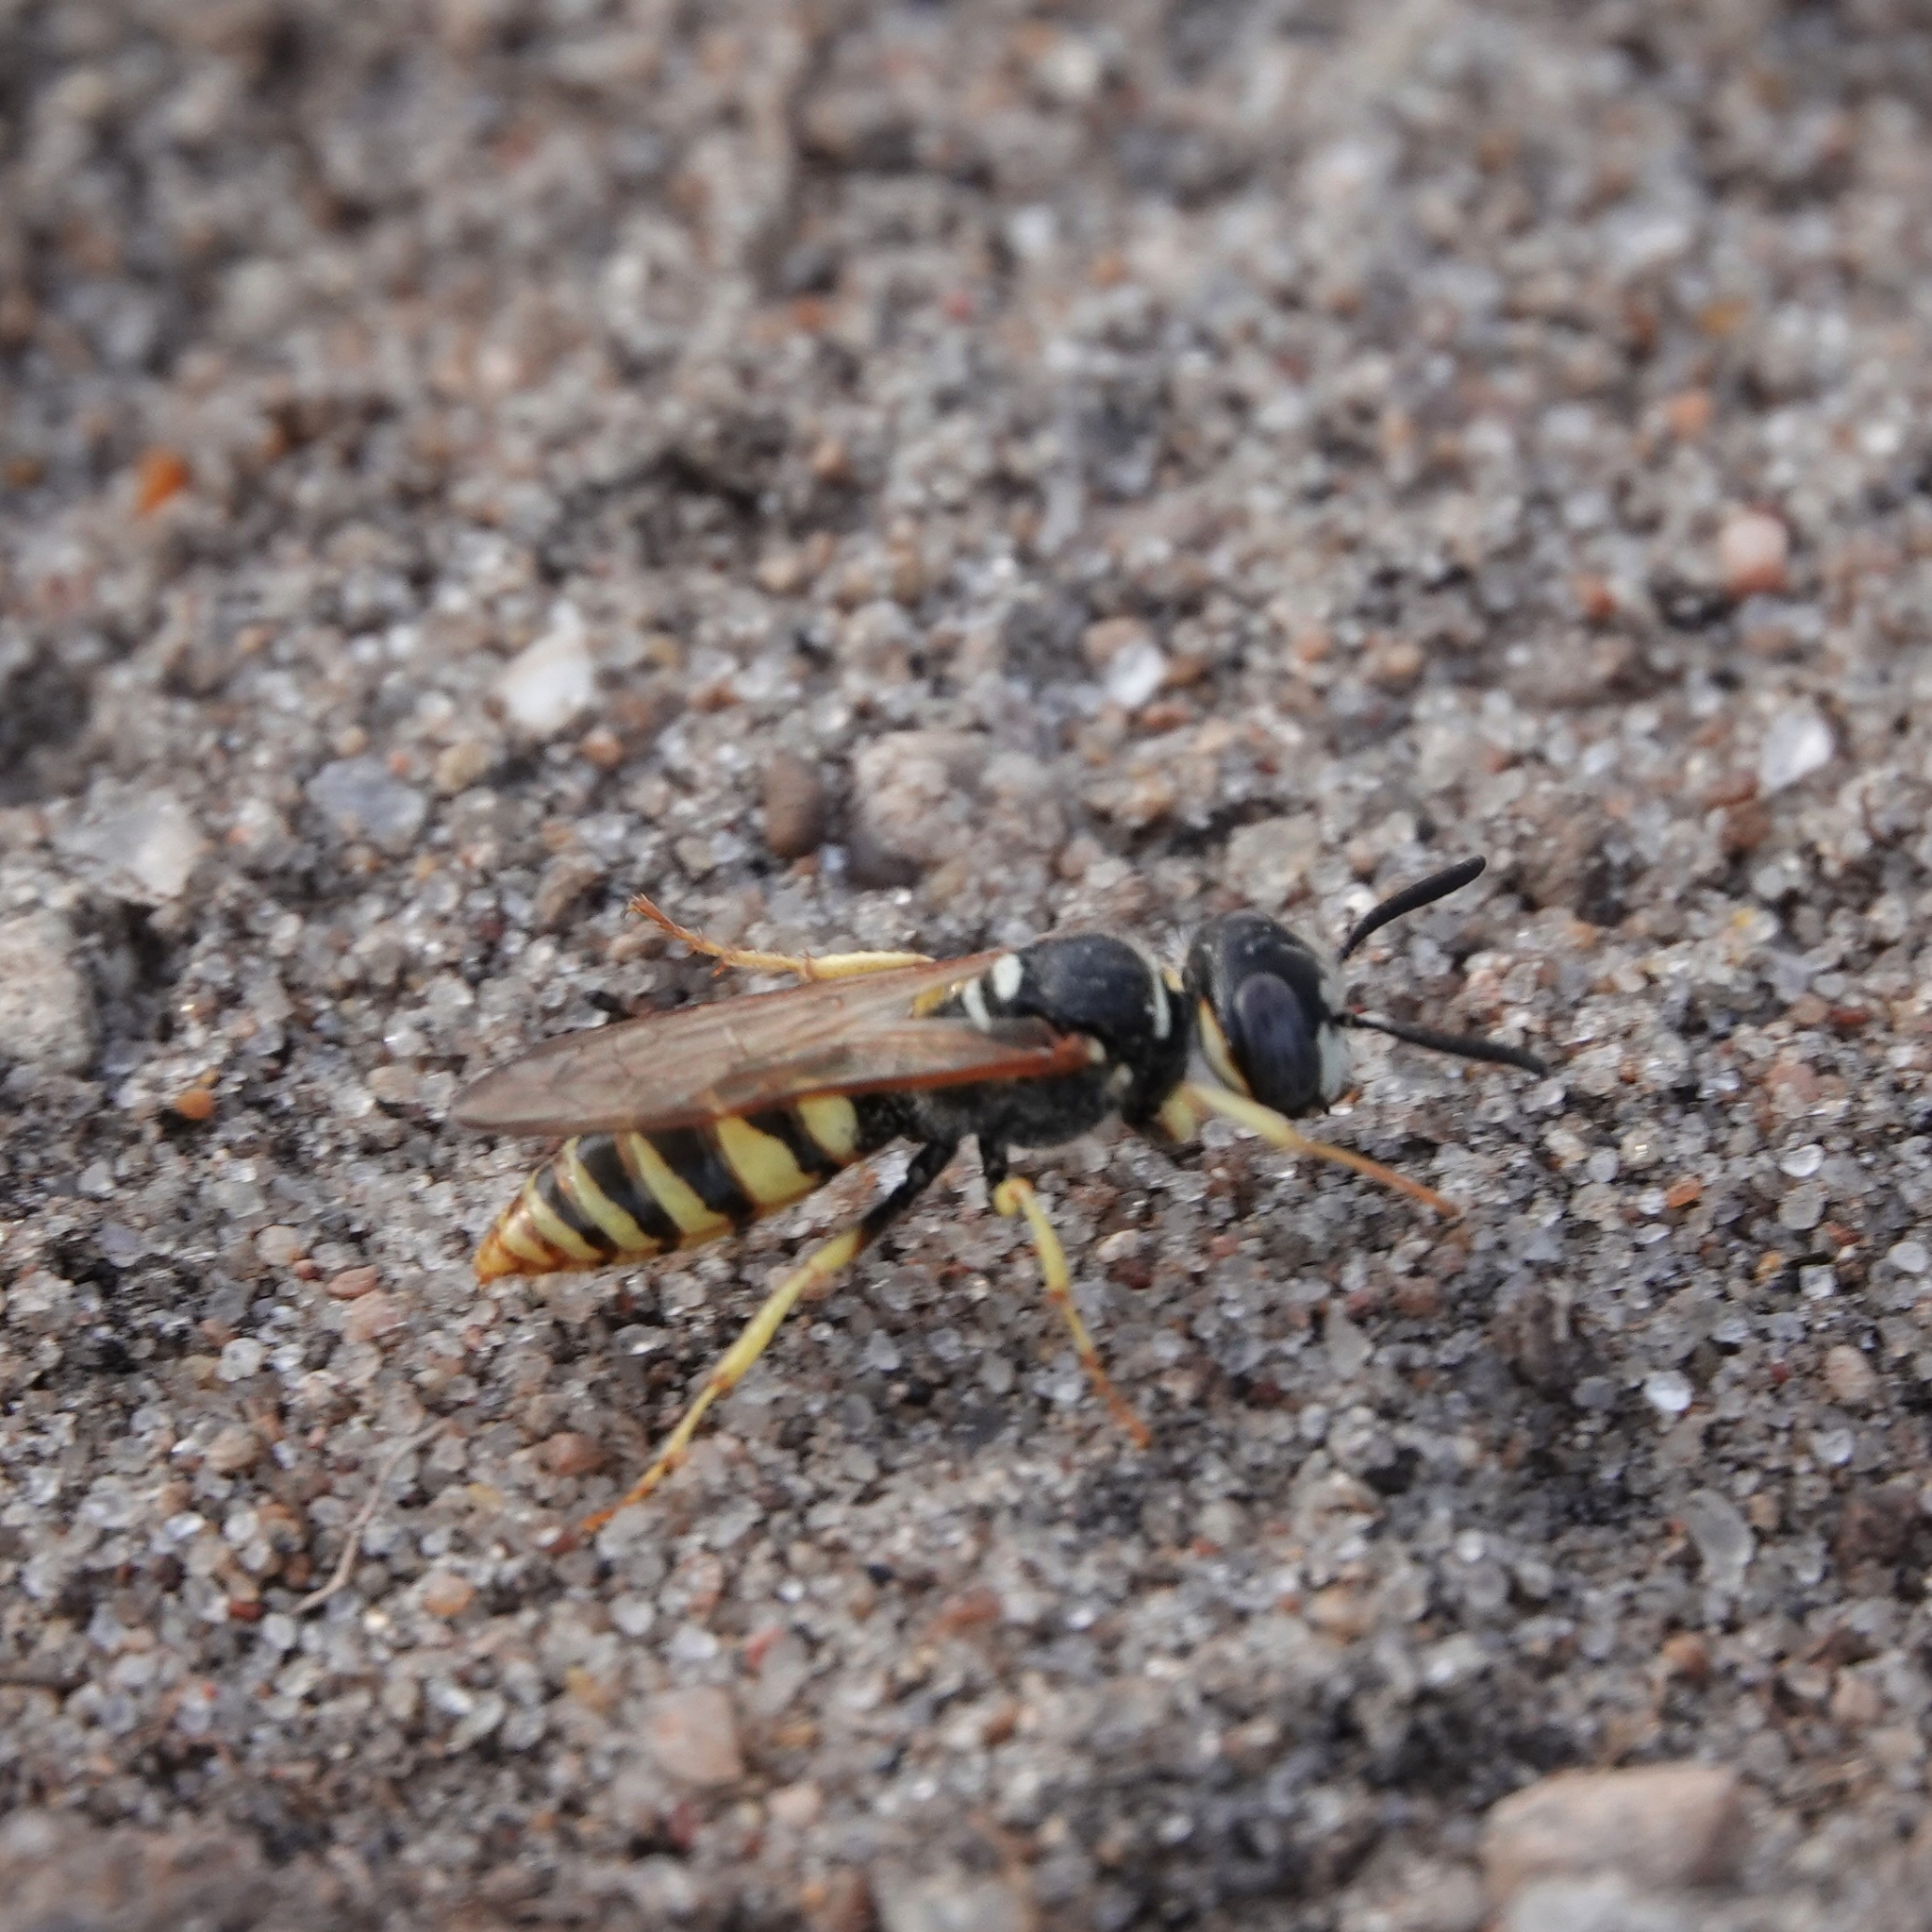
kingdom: Animalia
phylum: Arthropoda
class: Insecta
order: Hymenoptera
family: Crabronidae
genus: Philanthus
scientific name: Philanthus triangulum
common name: Bee wolf
